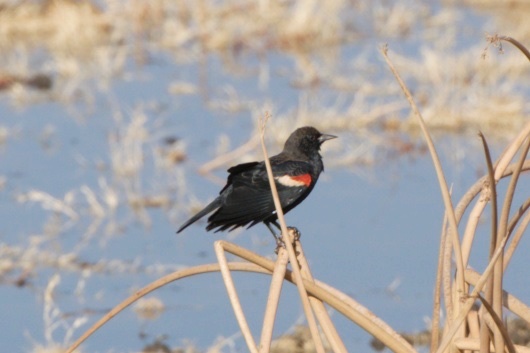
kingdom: Animalia
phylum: Chordata
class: Aves
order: Passeriformes
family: Icteridae
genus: Agelaius
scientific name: Agelaius phoeniceus
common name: Red-winged blackbird
